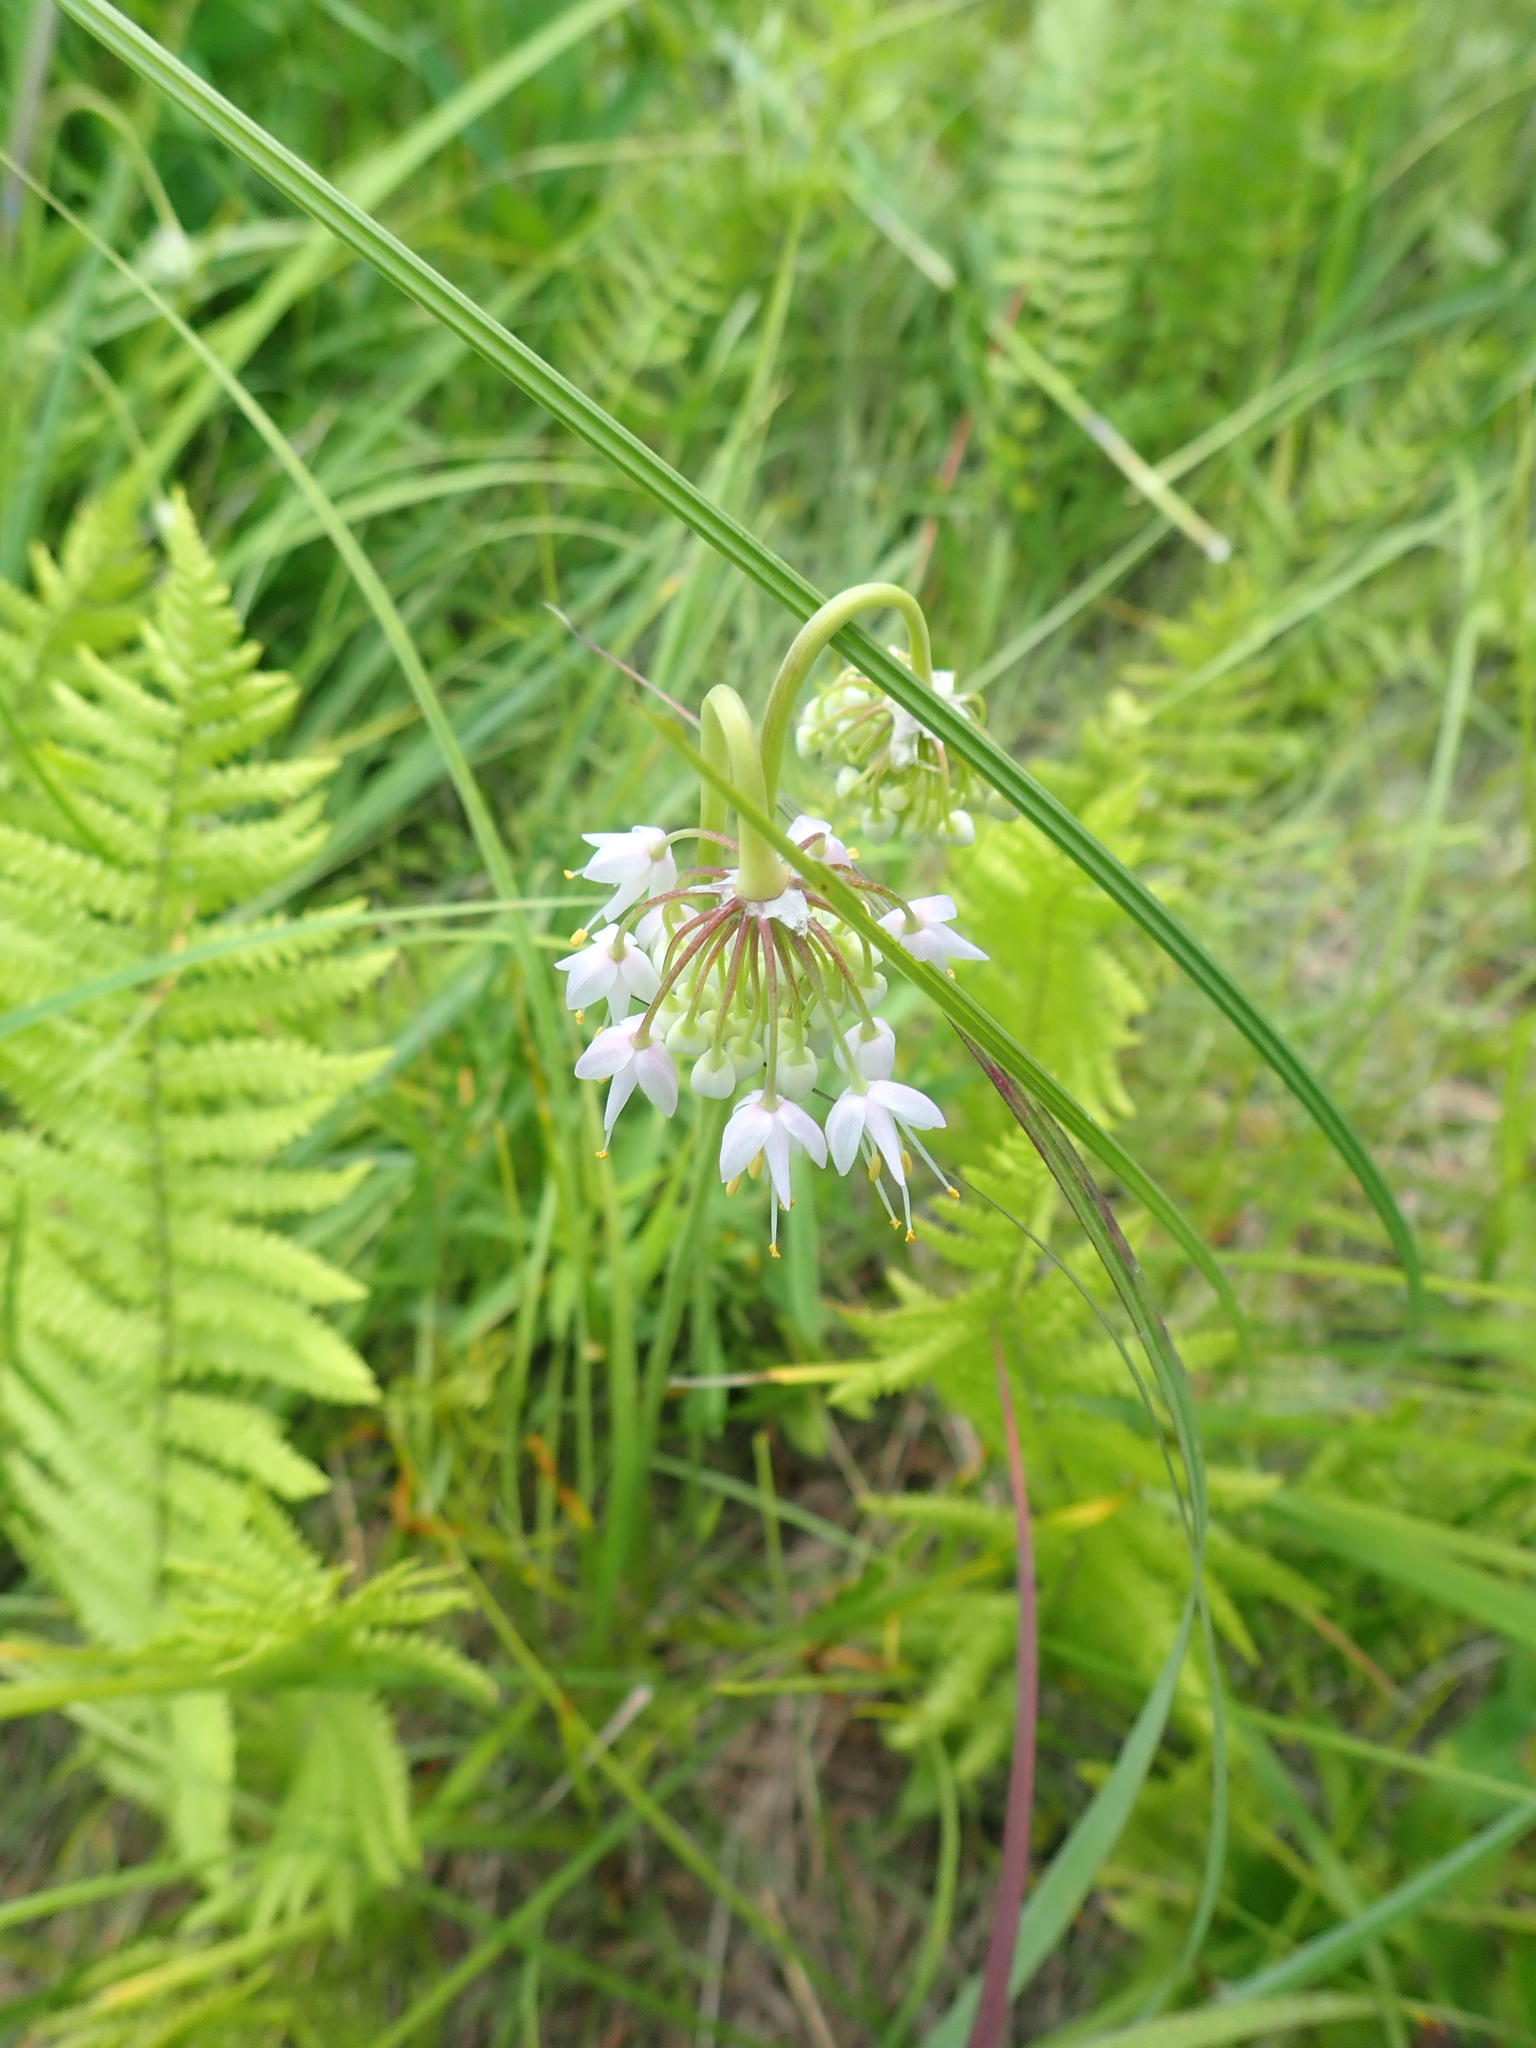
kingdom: Plantae
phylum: Tracheophyta
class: Liliopsida
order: Asparagales
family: Amaryllidaceae
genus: Allium
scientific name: Allium cernuum
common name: Nodding onion
